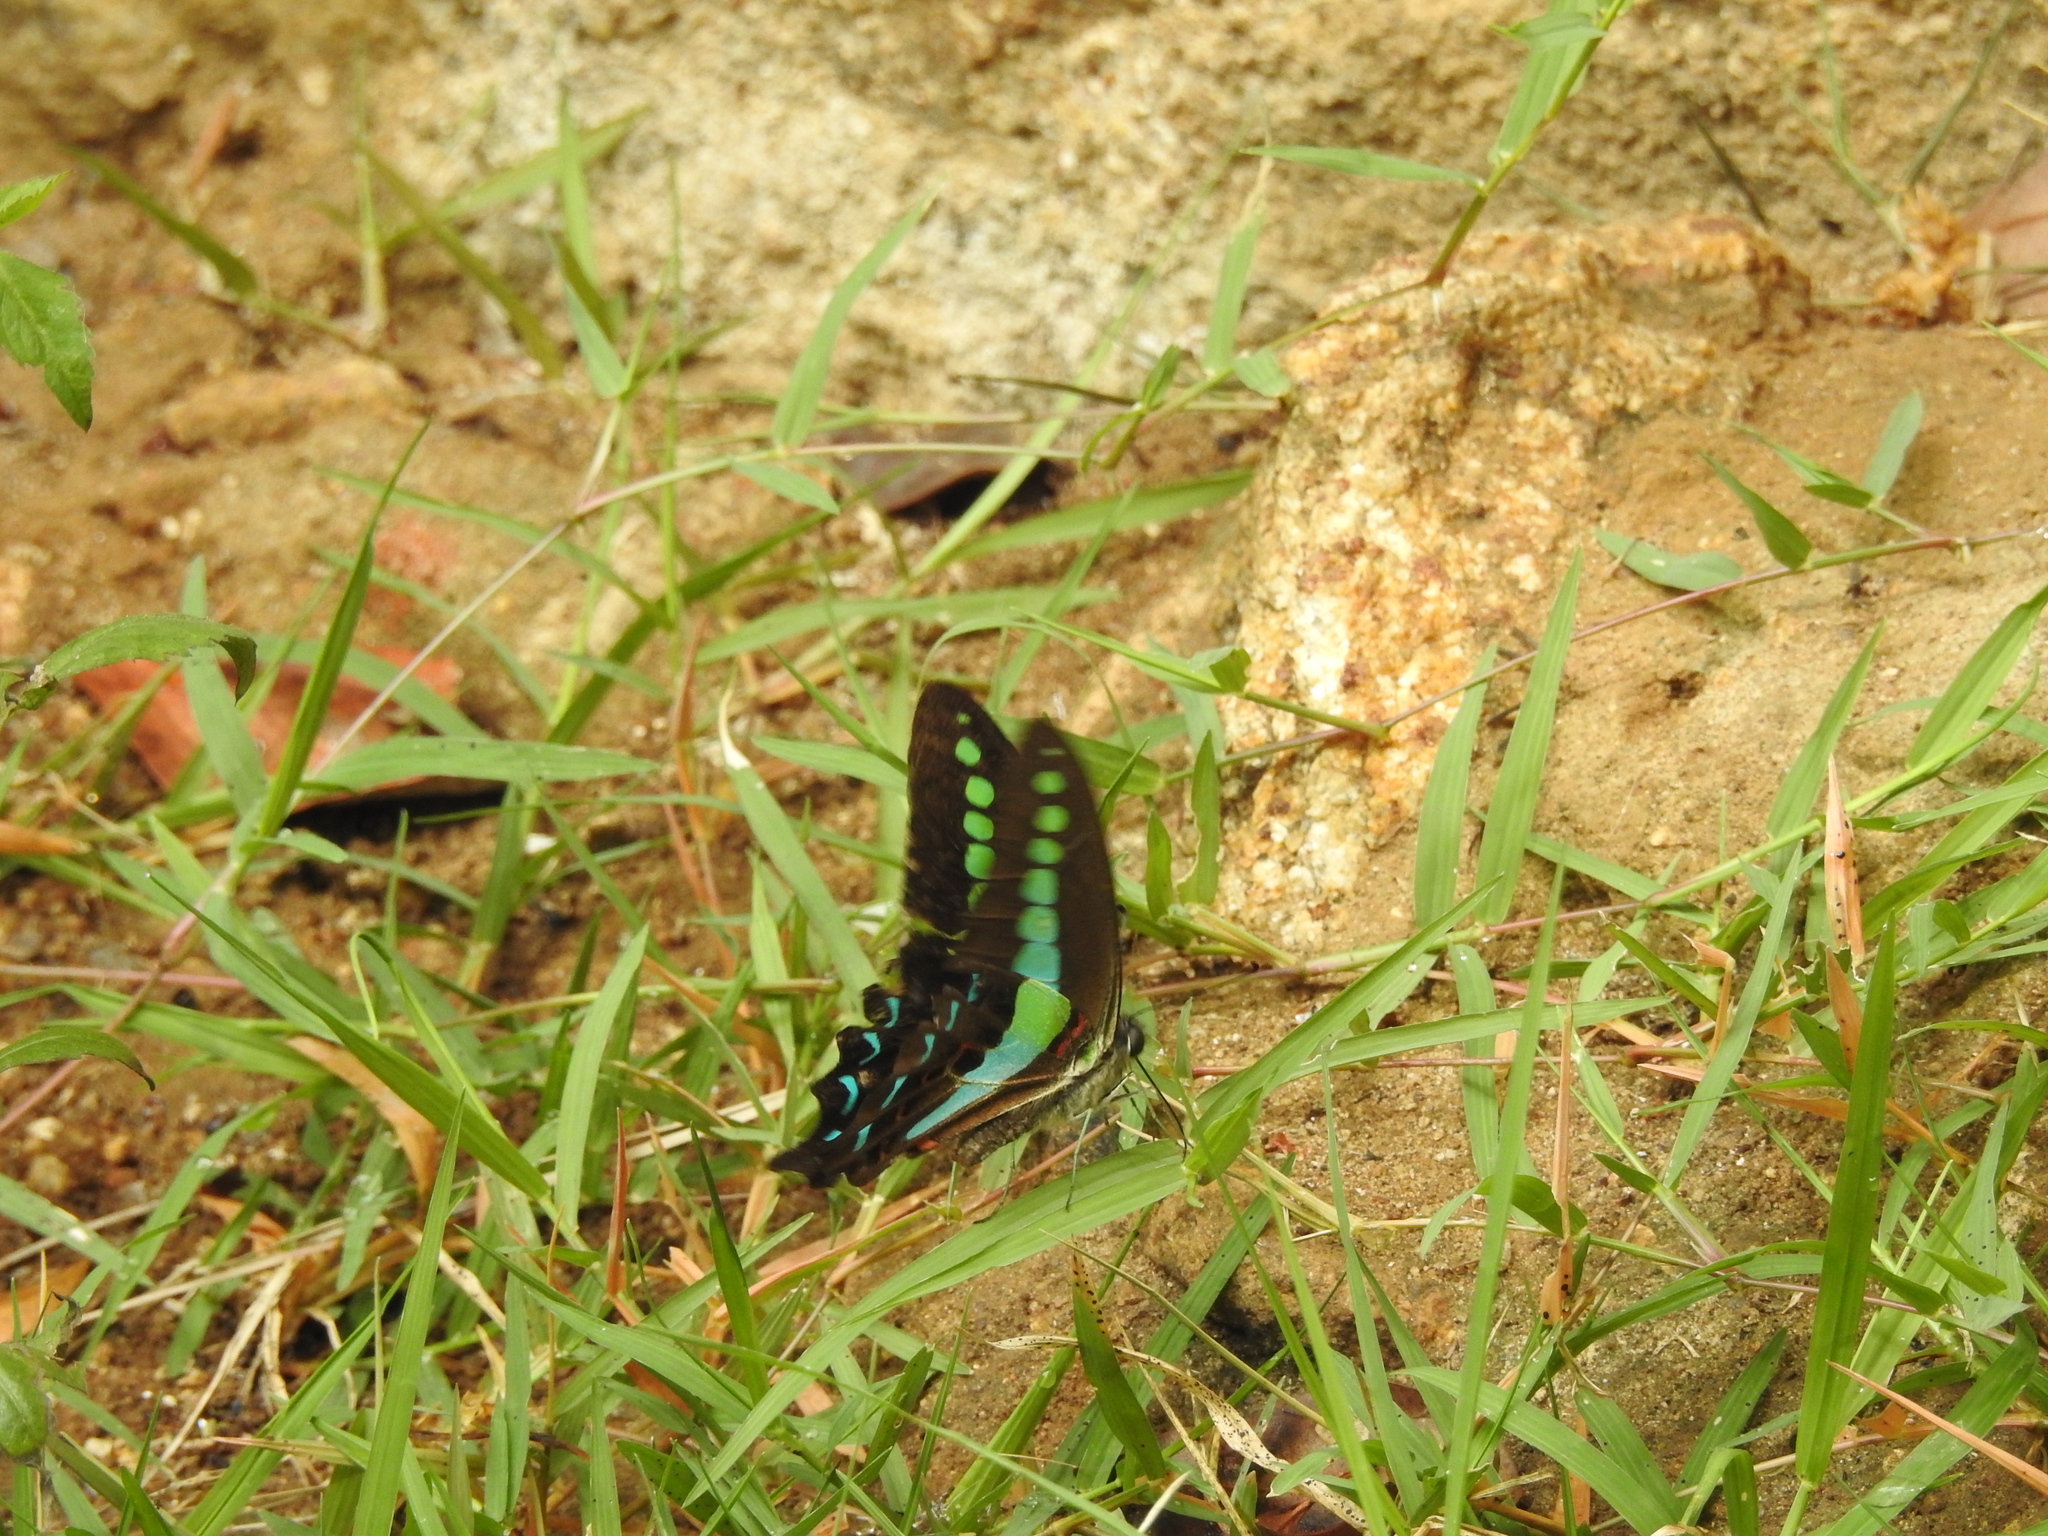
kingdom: Animalia
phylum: Arthropoda
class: Insecta
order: Lepidoptera
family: Papilionidae
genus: Graphium
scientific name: Graphium
